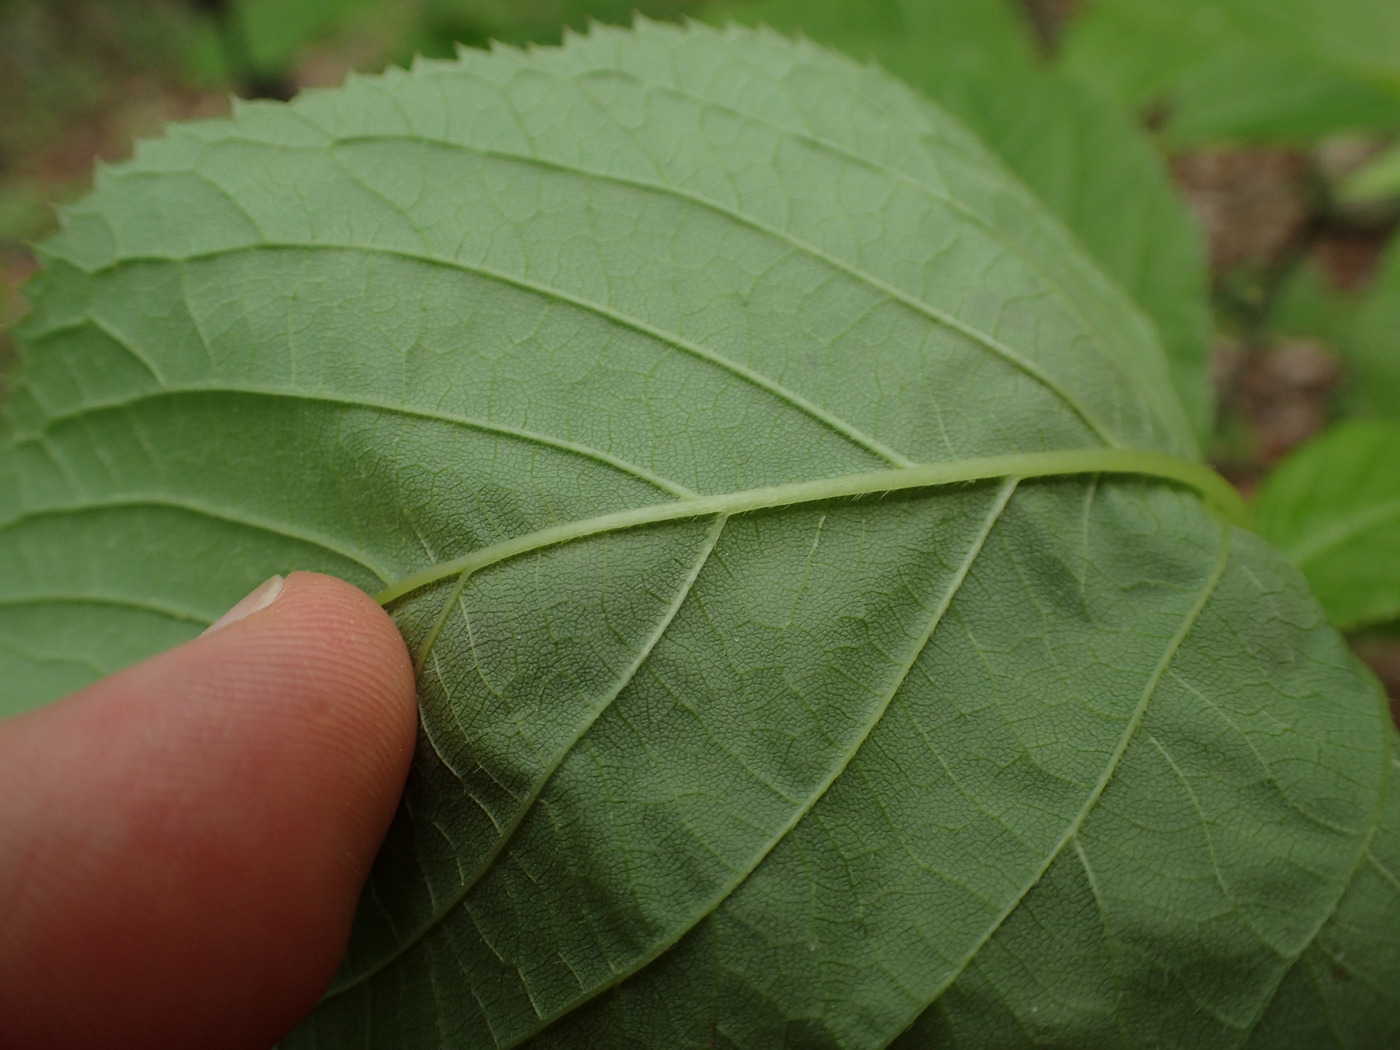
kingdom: Plantae
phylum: Tracheophyta
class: Magnoliopsida
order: Ericales
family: Clethraceae
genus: Clethra
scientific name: Clethra acuminata
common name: Mountain sweet pepperbush
